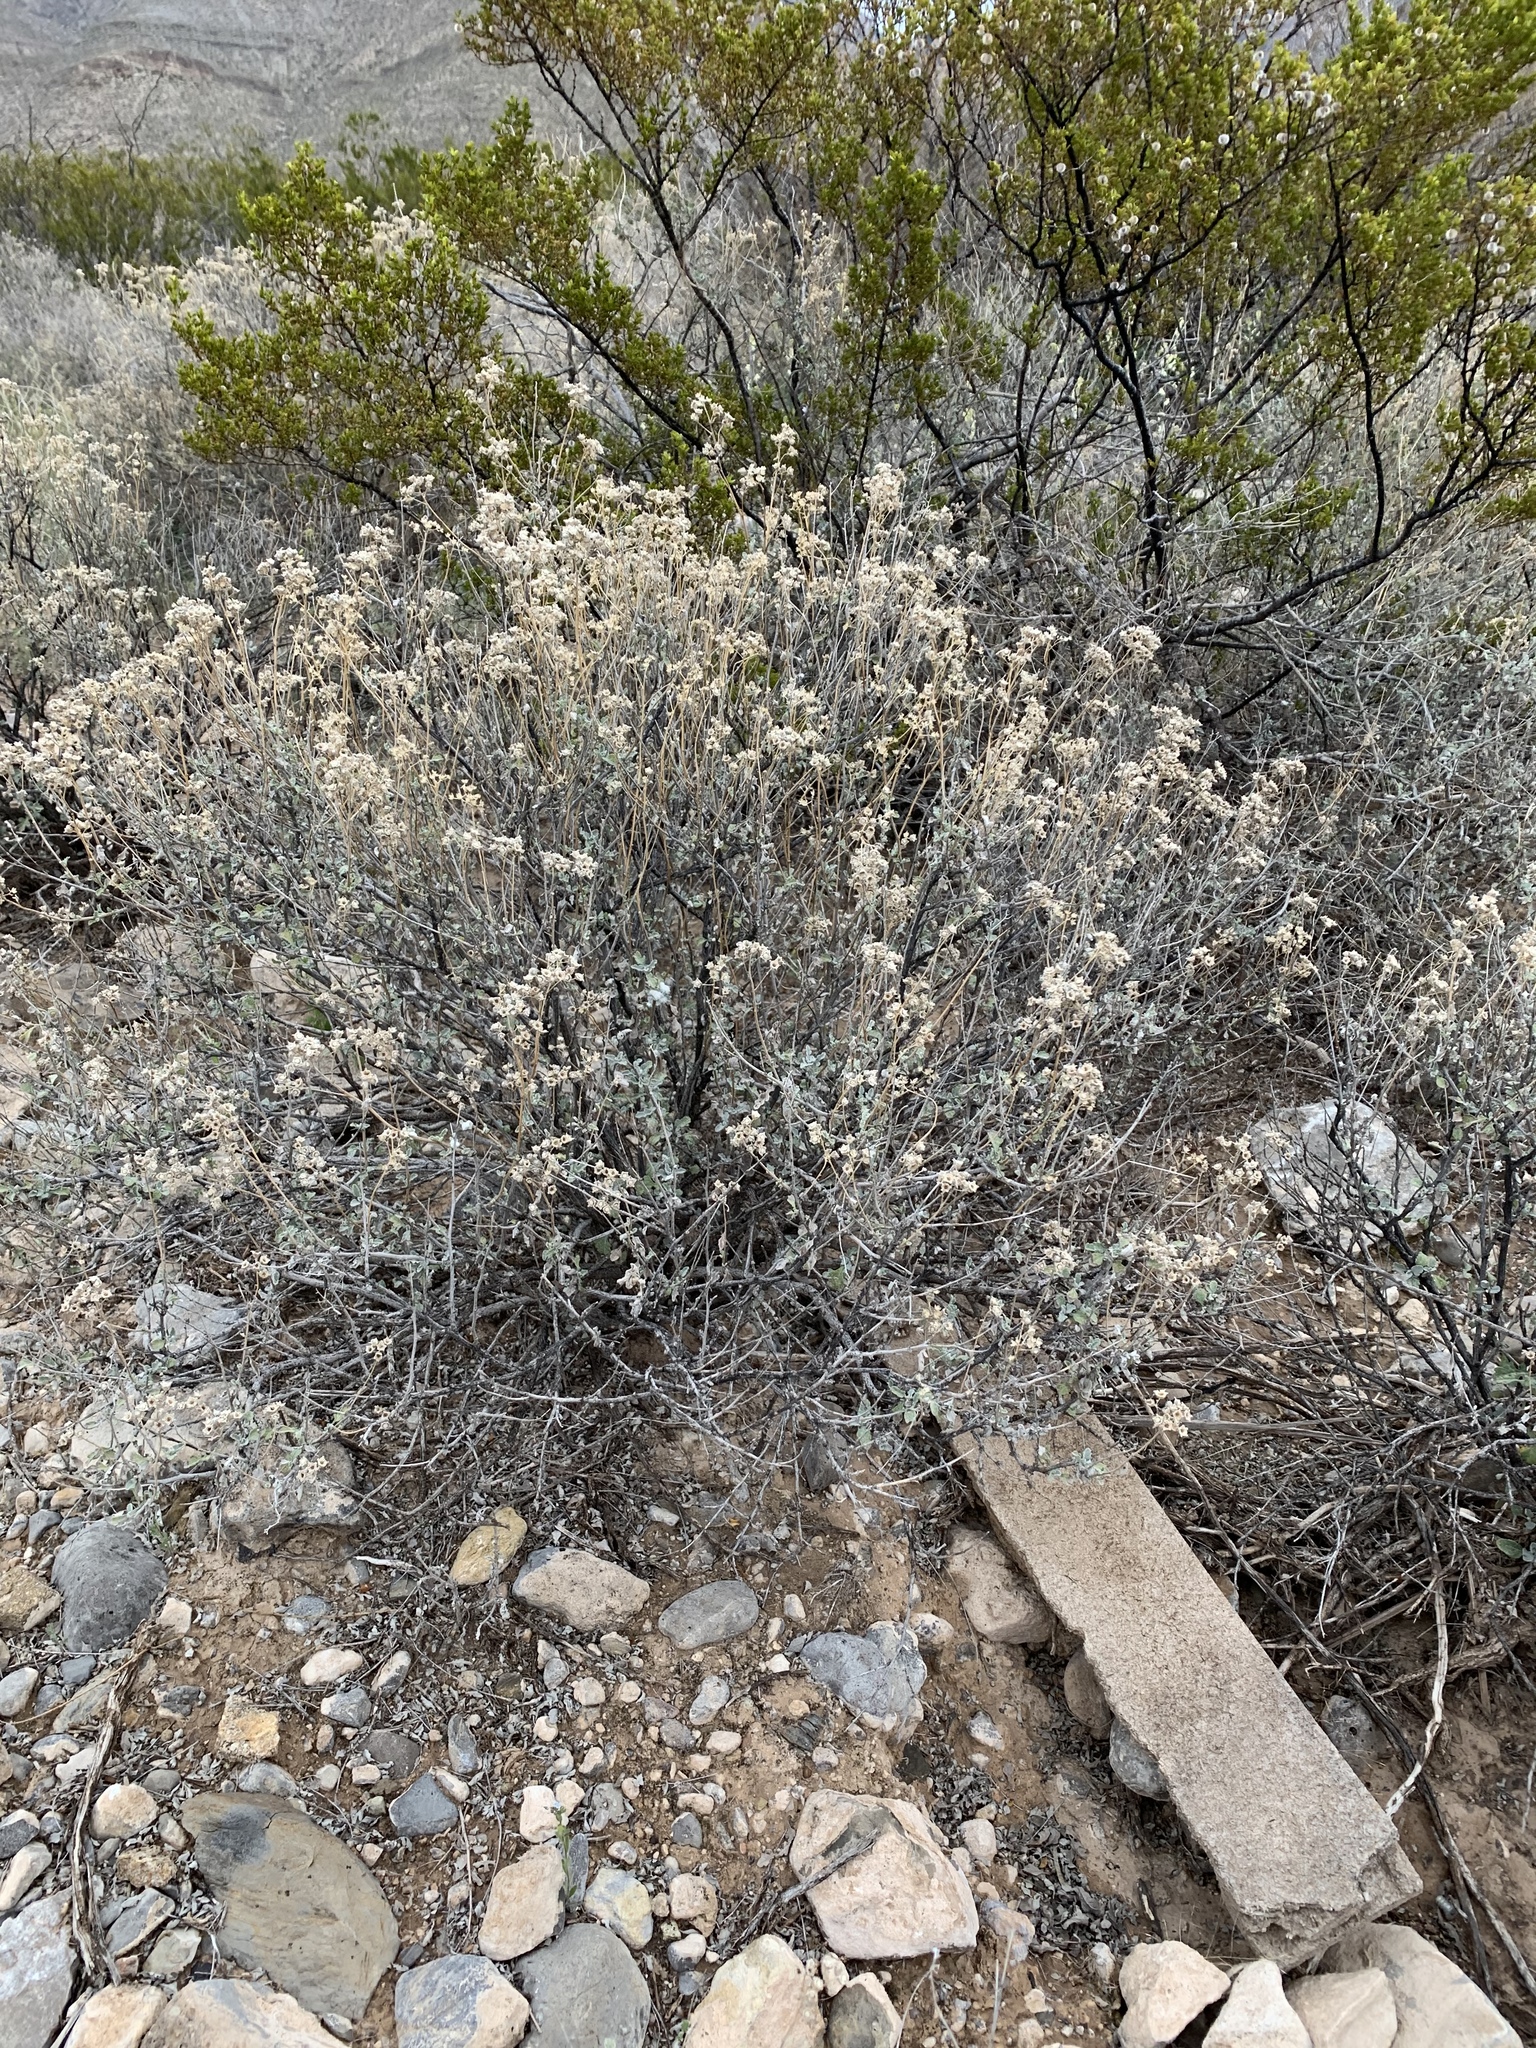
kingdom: Plantae
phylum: Tracheophyta
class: Magnoliopsida
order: Asterales
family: Asteraceae
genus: Parthenium
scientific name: Parthenium incanum
